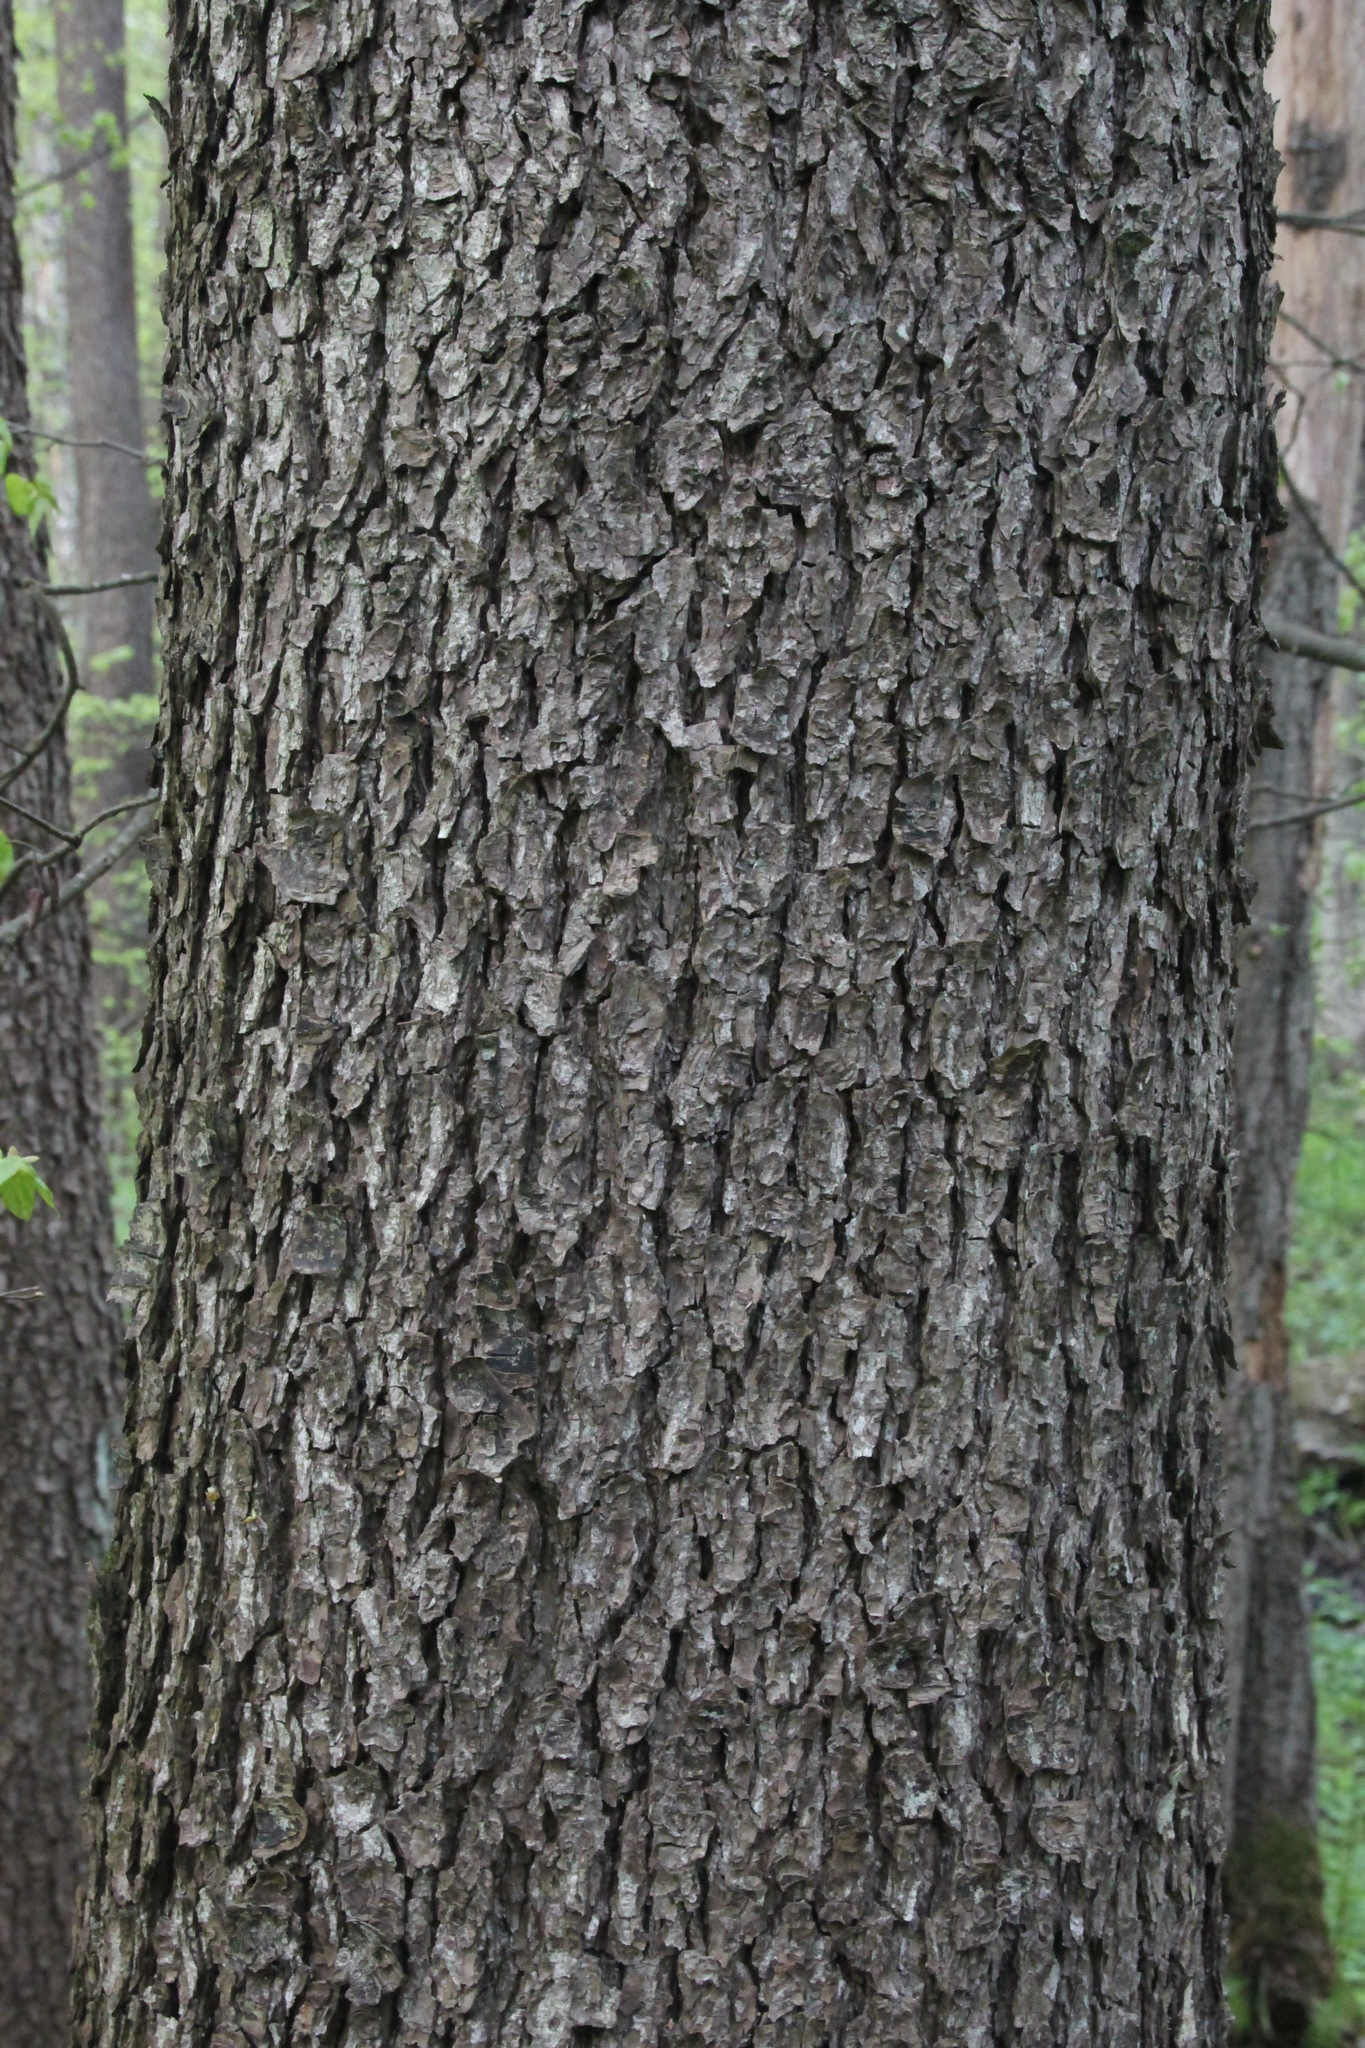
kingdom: Plantae
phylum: Tracheophyta
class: Magnoliopsida
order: Fagales
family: Betulaceae
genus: Alnus
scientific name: Alnus glutinosa
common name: Black alder
